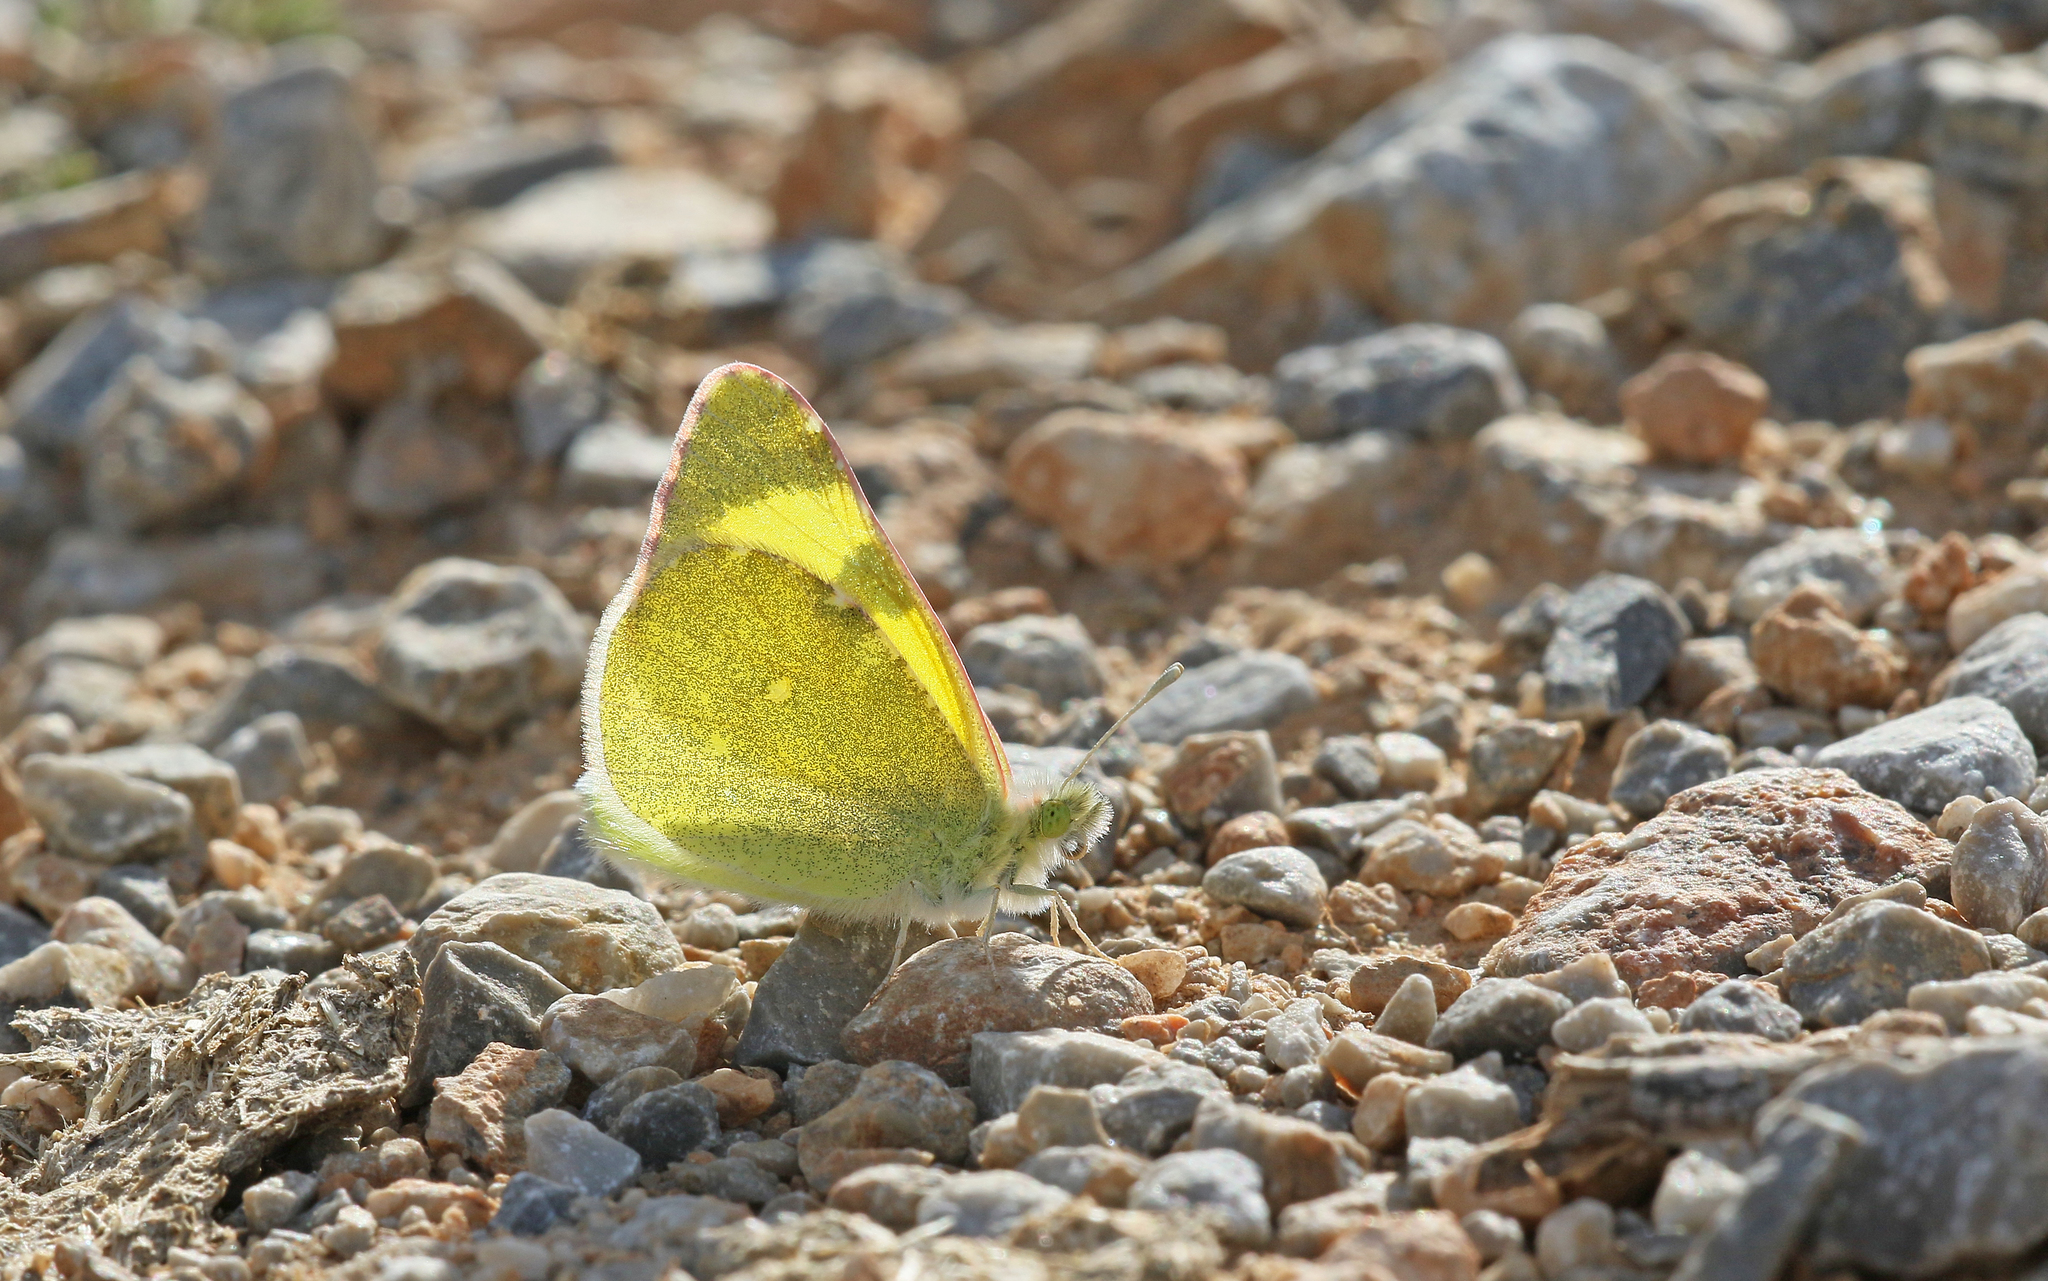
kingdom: Animalia
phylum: Arthropoda
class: Insecta
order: Lepidoptera
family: Pieridae
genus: Elphinstonia
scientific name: Elphinstonia penia
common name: Eastern greenish black-tip
